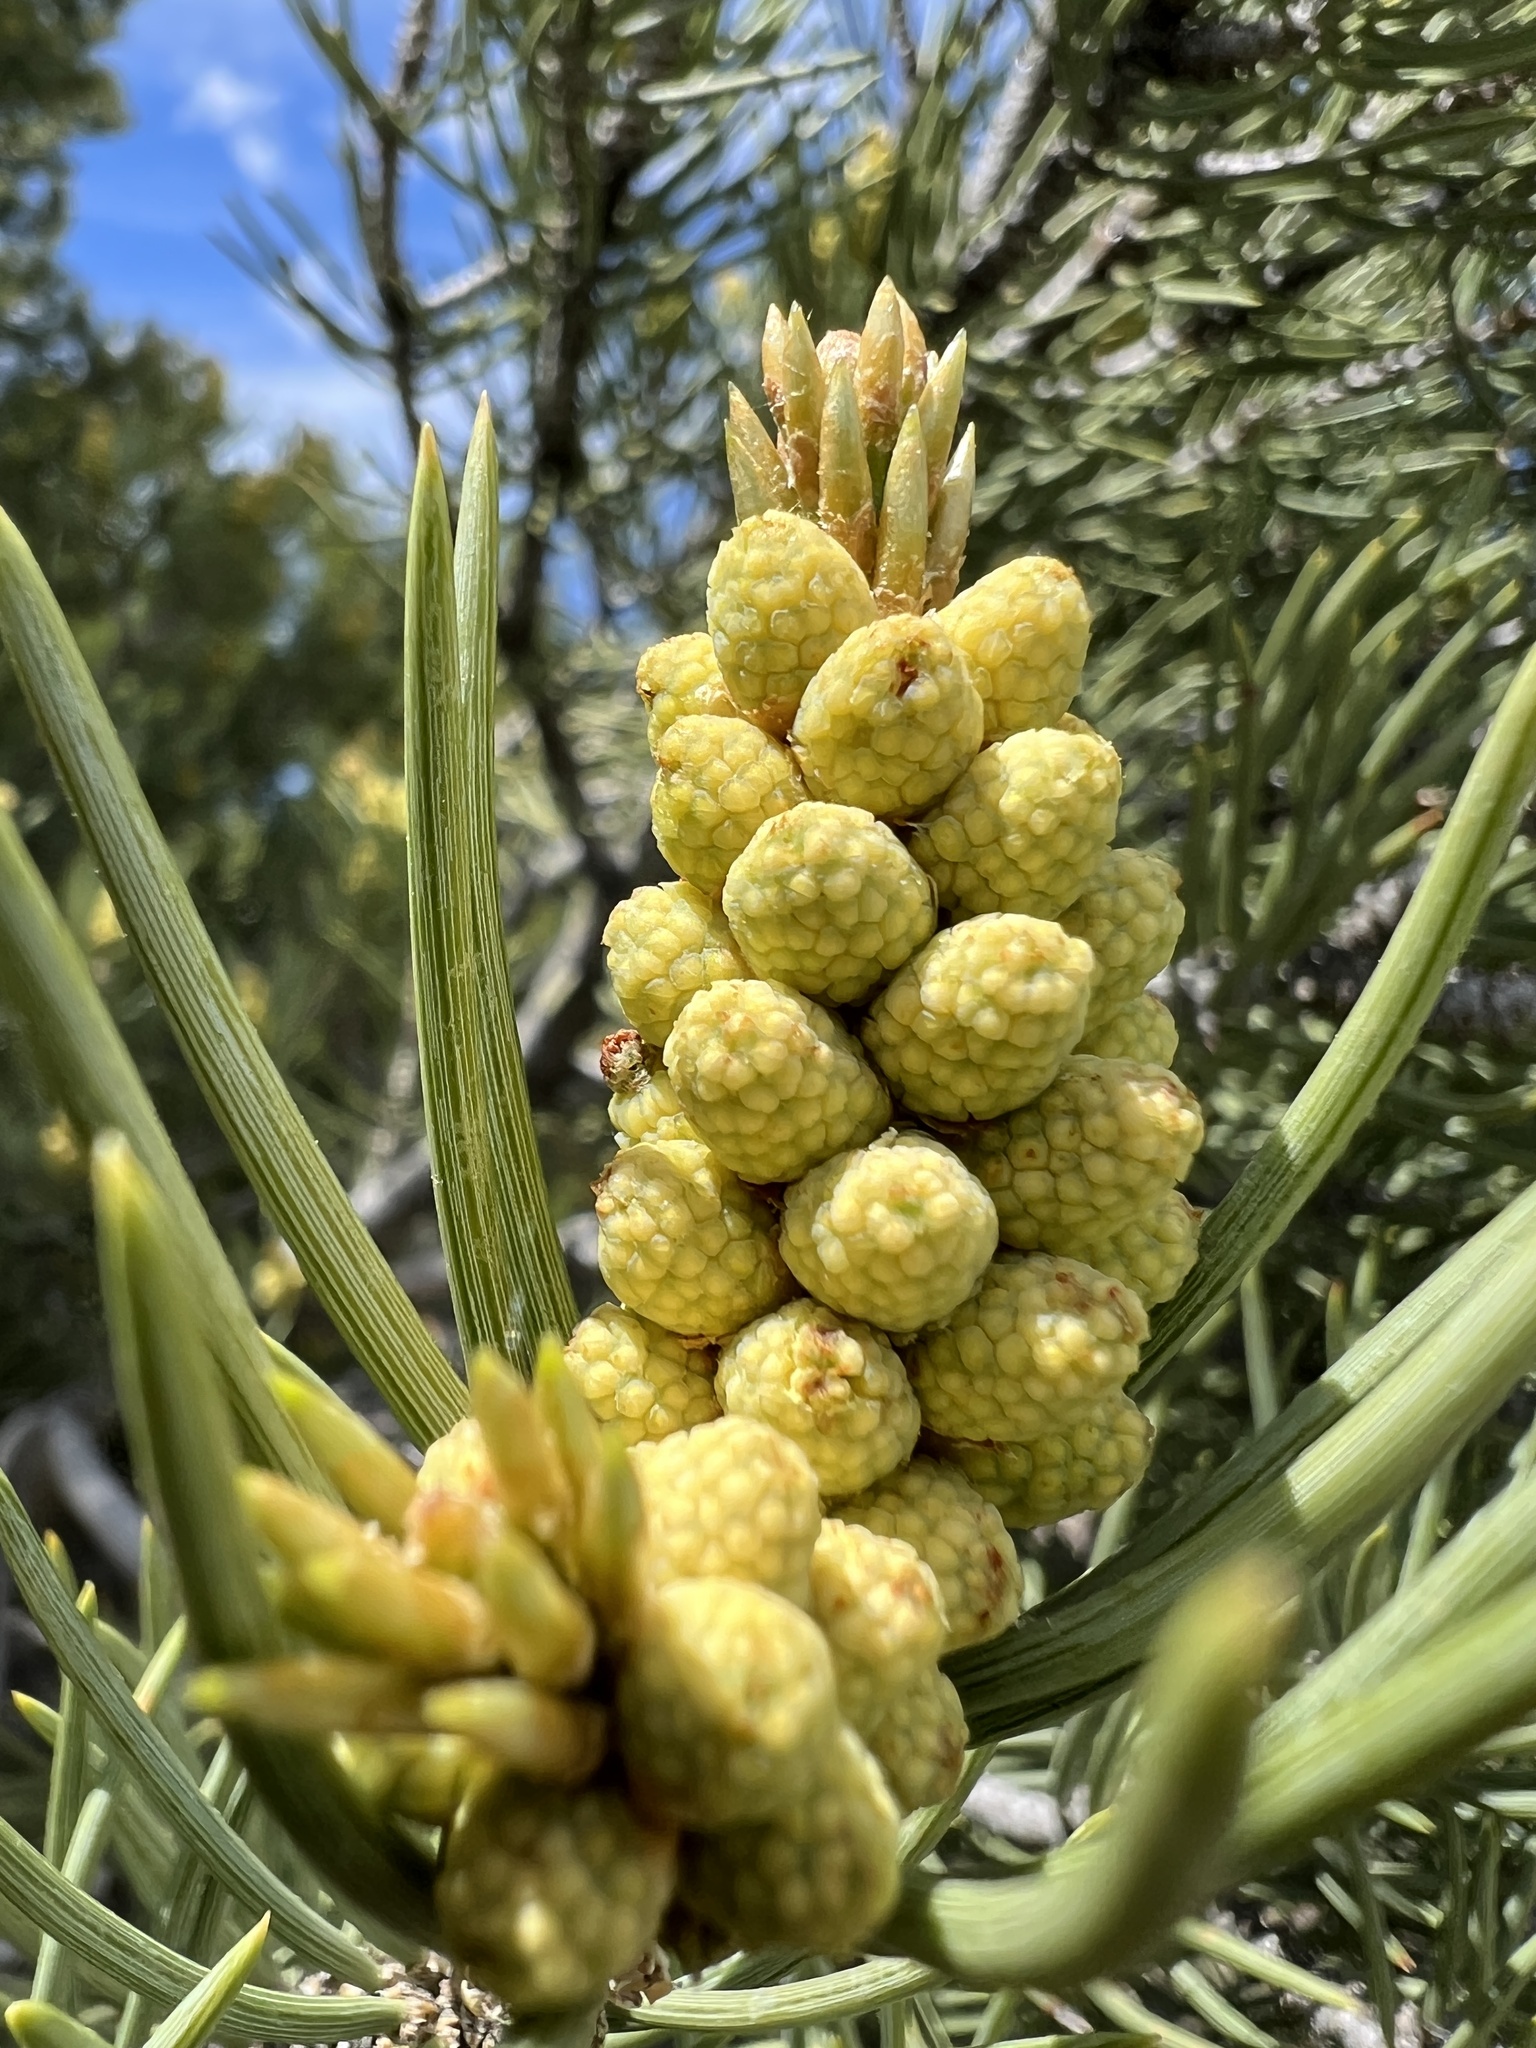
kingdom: Plantae
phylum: Tracheophyta
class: Pinopsida
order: Pinales
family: Pinaceae
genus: Pinus
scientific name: Pinus monophylla
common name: One-leaved nut pine
